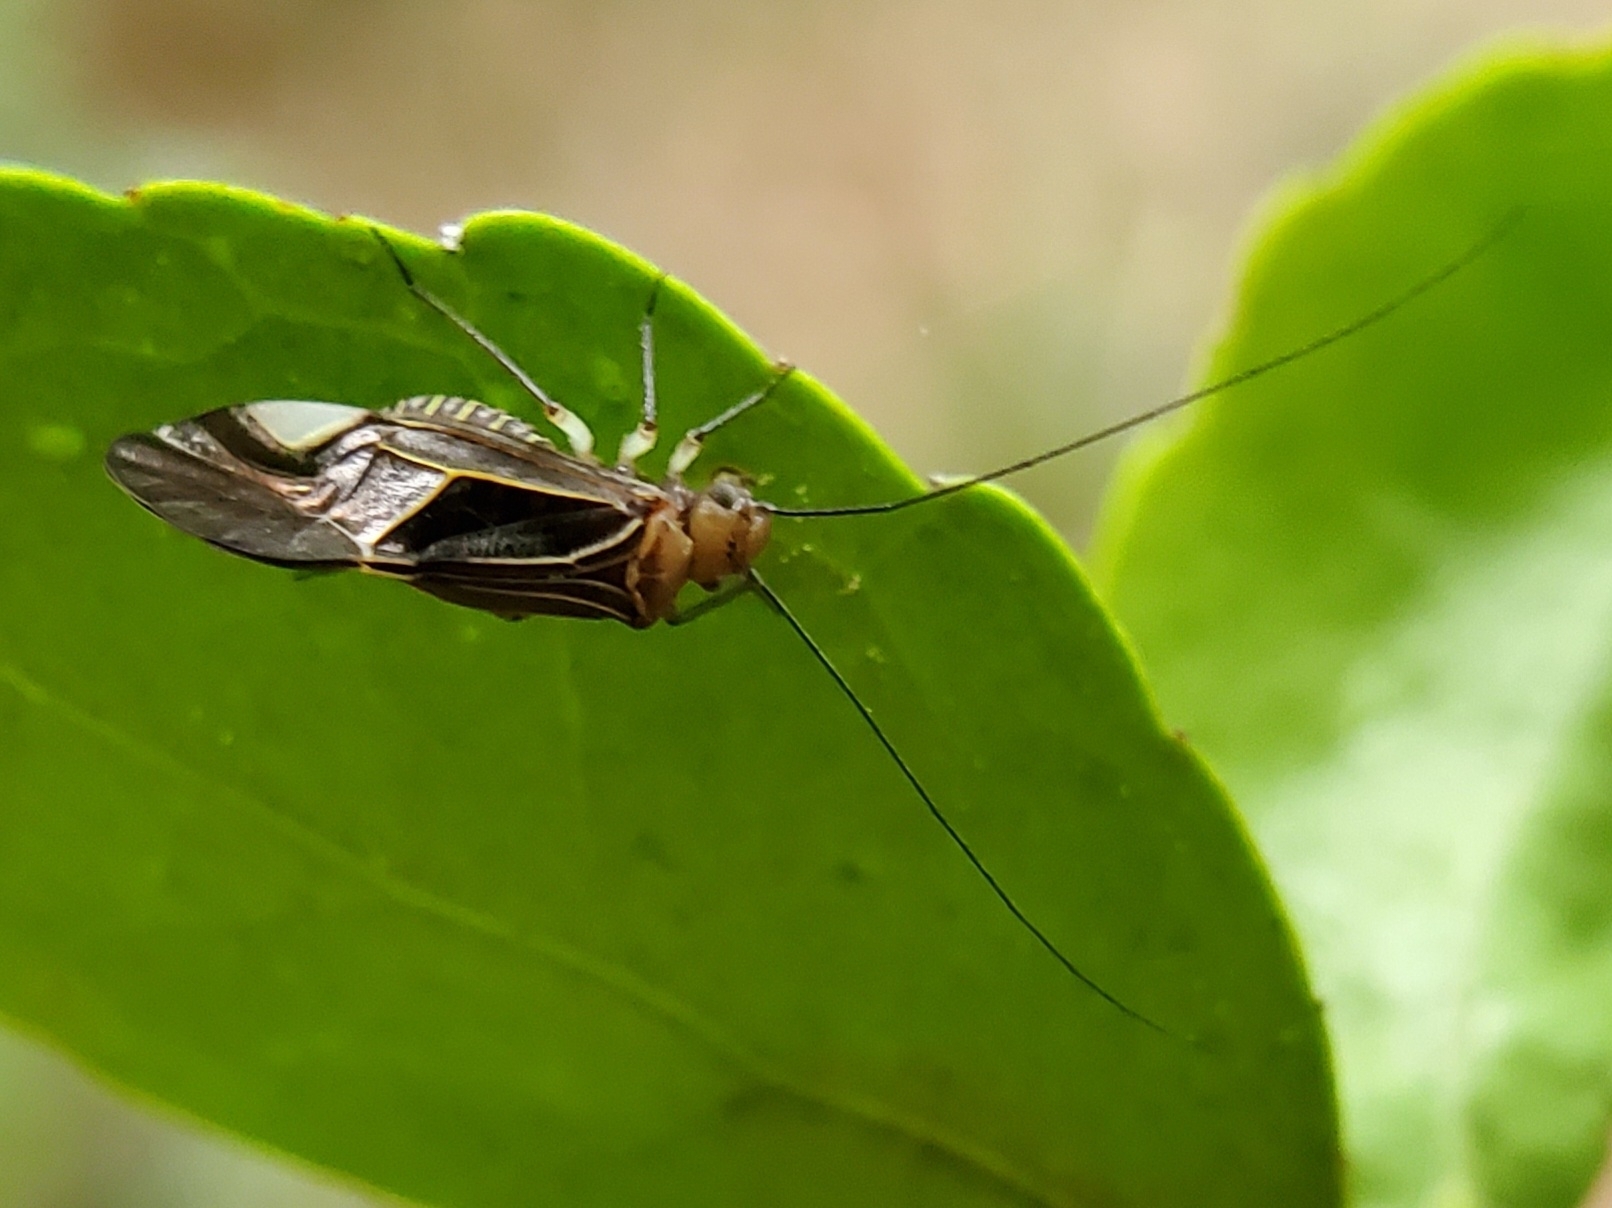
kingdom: Animalia
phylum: Arthropoda
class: Insecta
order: Psocodea
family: Psocidae
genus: Cerastipsocus
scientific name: Cerastipsocus venosus
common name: Tree cattle
